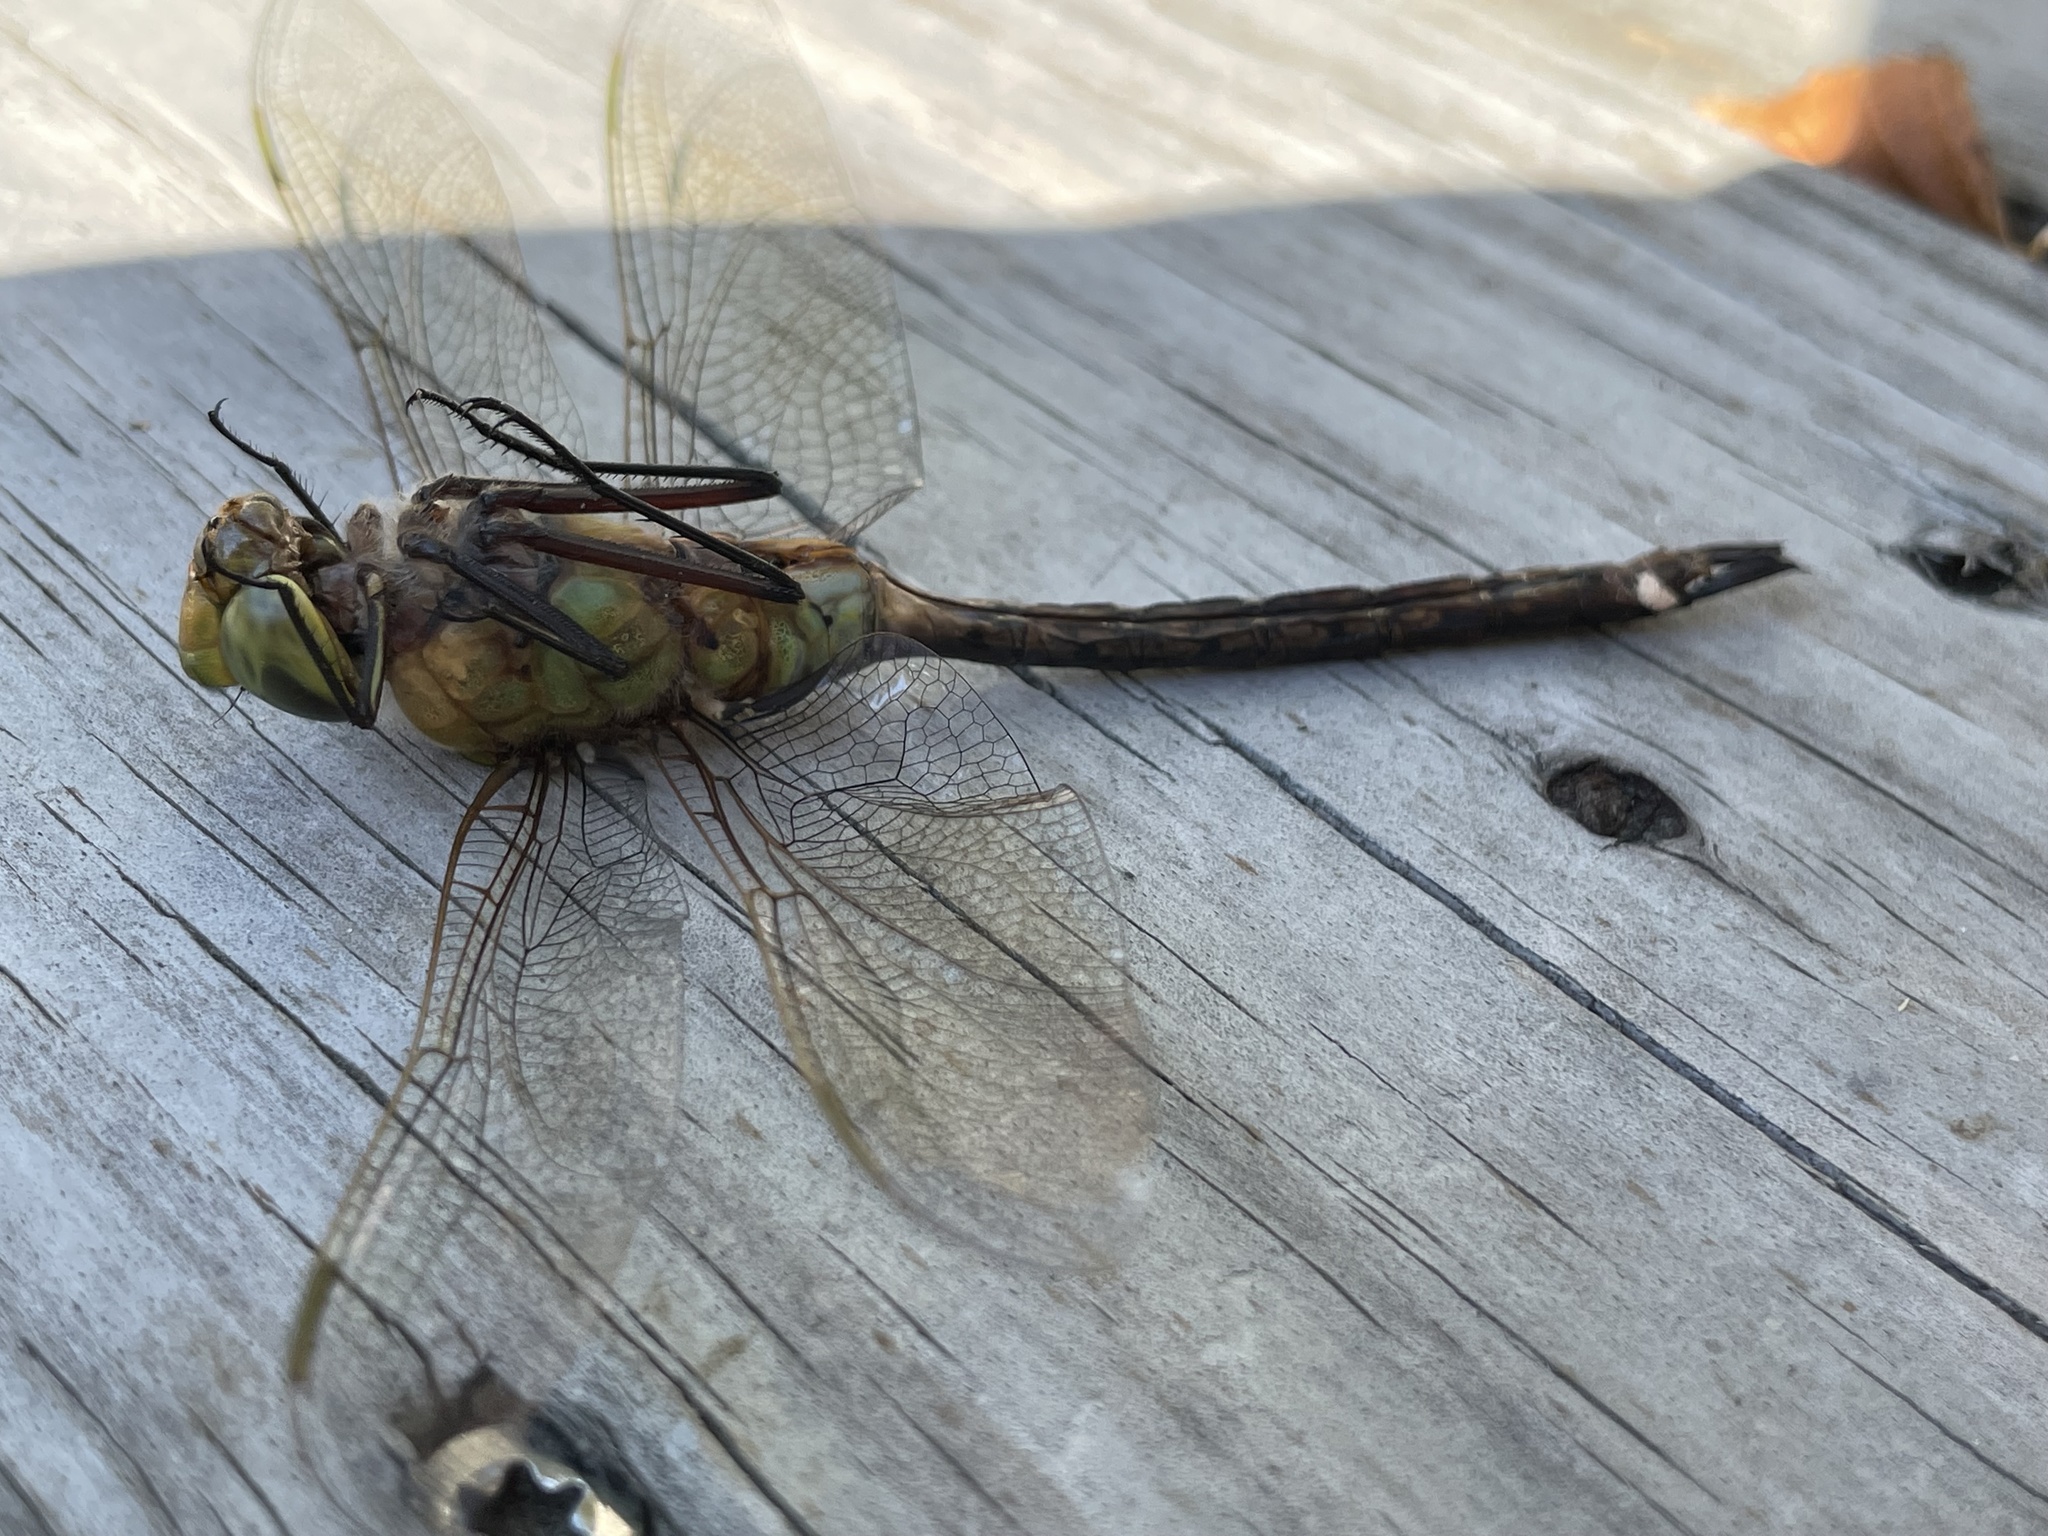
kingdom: Animalia
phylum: Arthropoda
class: Insecta
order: Odonata
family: Aeshnidae
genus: Anax
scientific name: Anax junius
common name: Common green darner
